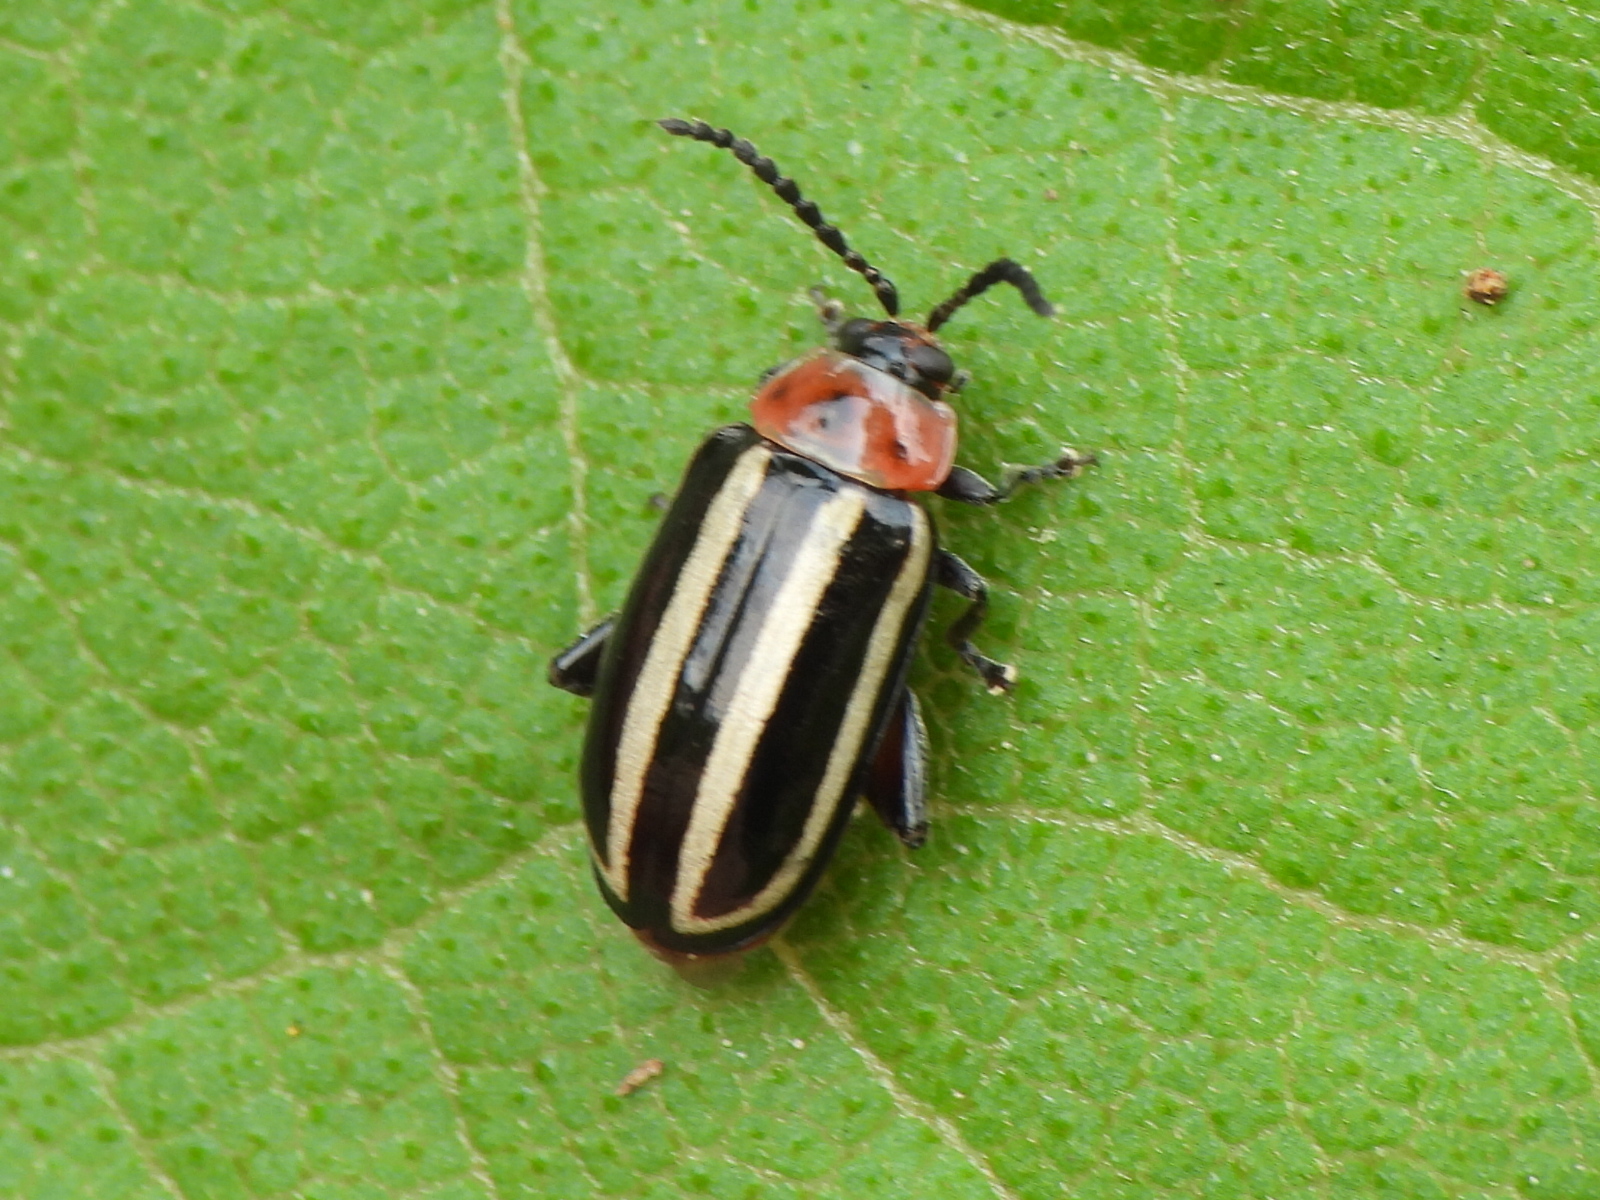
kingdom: Animalia
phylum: Arthropoda
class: Insecta
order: Coleoptera
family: Chrysomelidae
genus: Disonycha
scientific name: Disonycha glabrata
